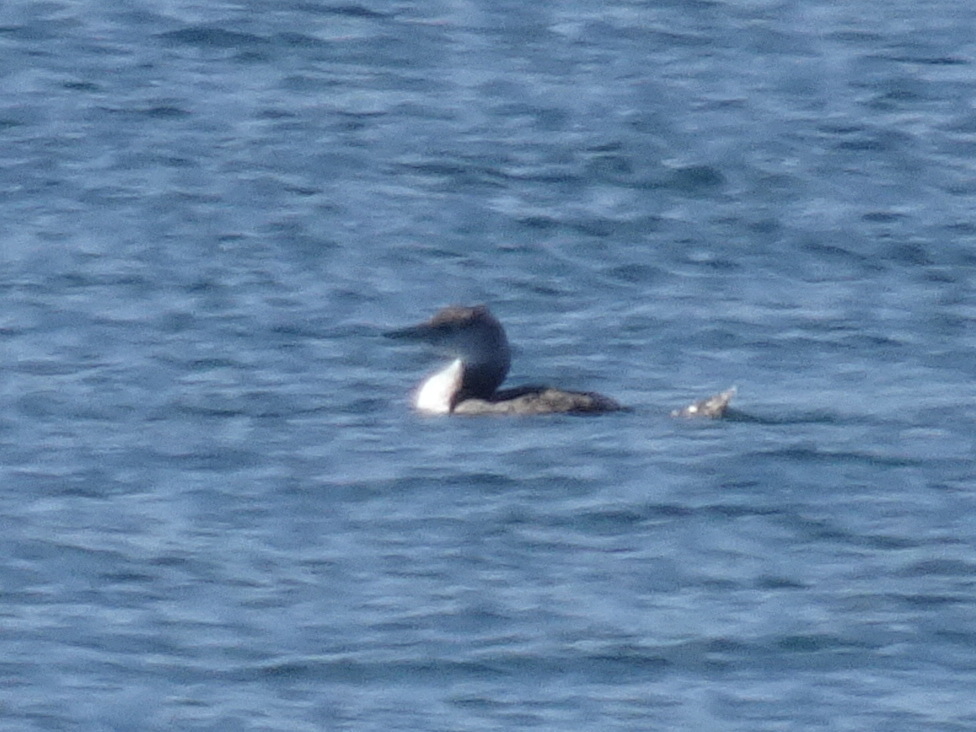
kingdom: Animalia
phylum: Chordata
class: Aves
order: Gaviiformes
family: Gaviidae
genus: Gavia
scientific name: Gavia immer
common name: Common loon
